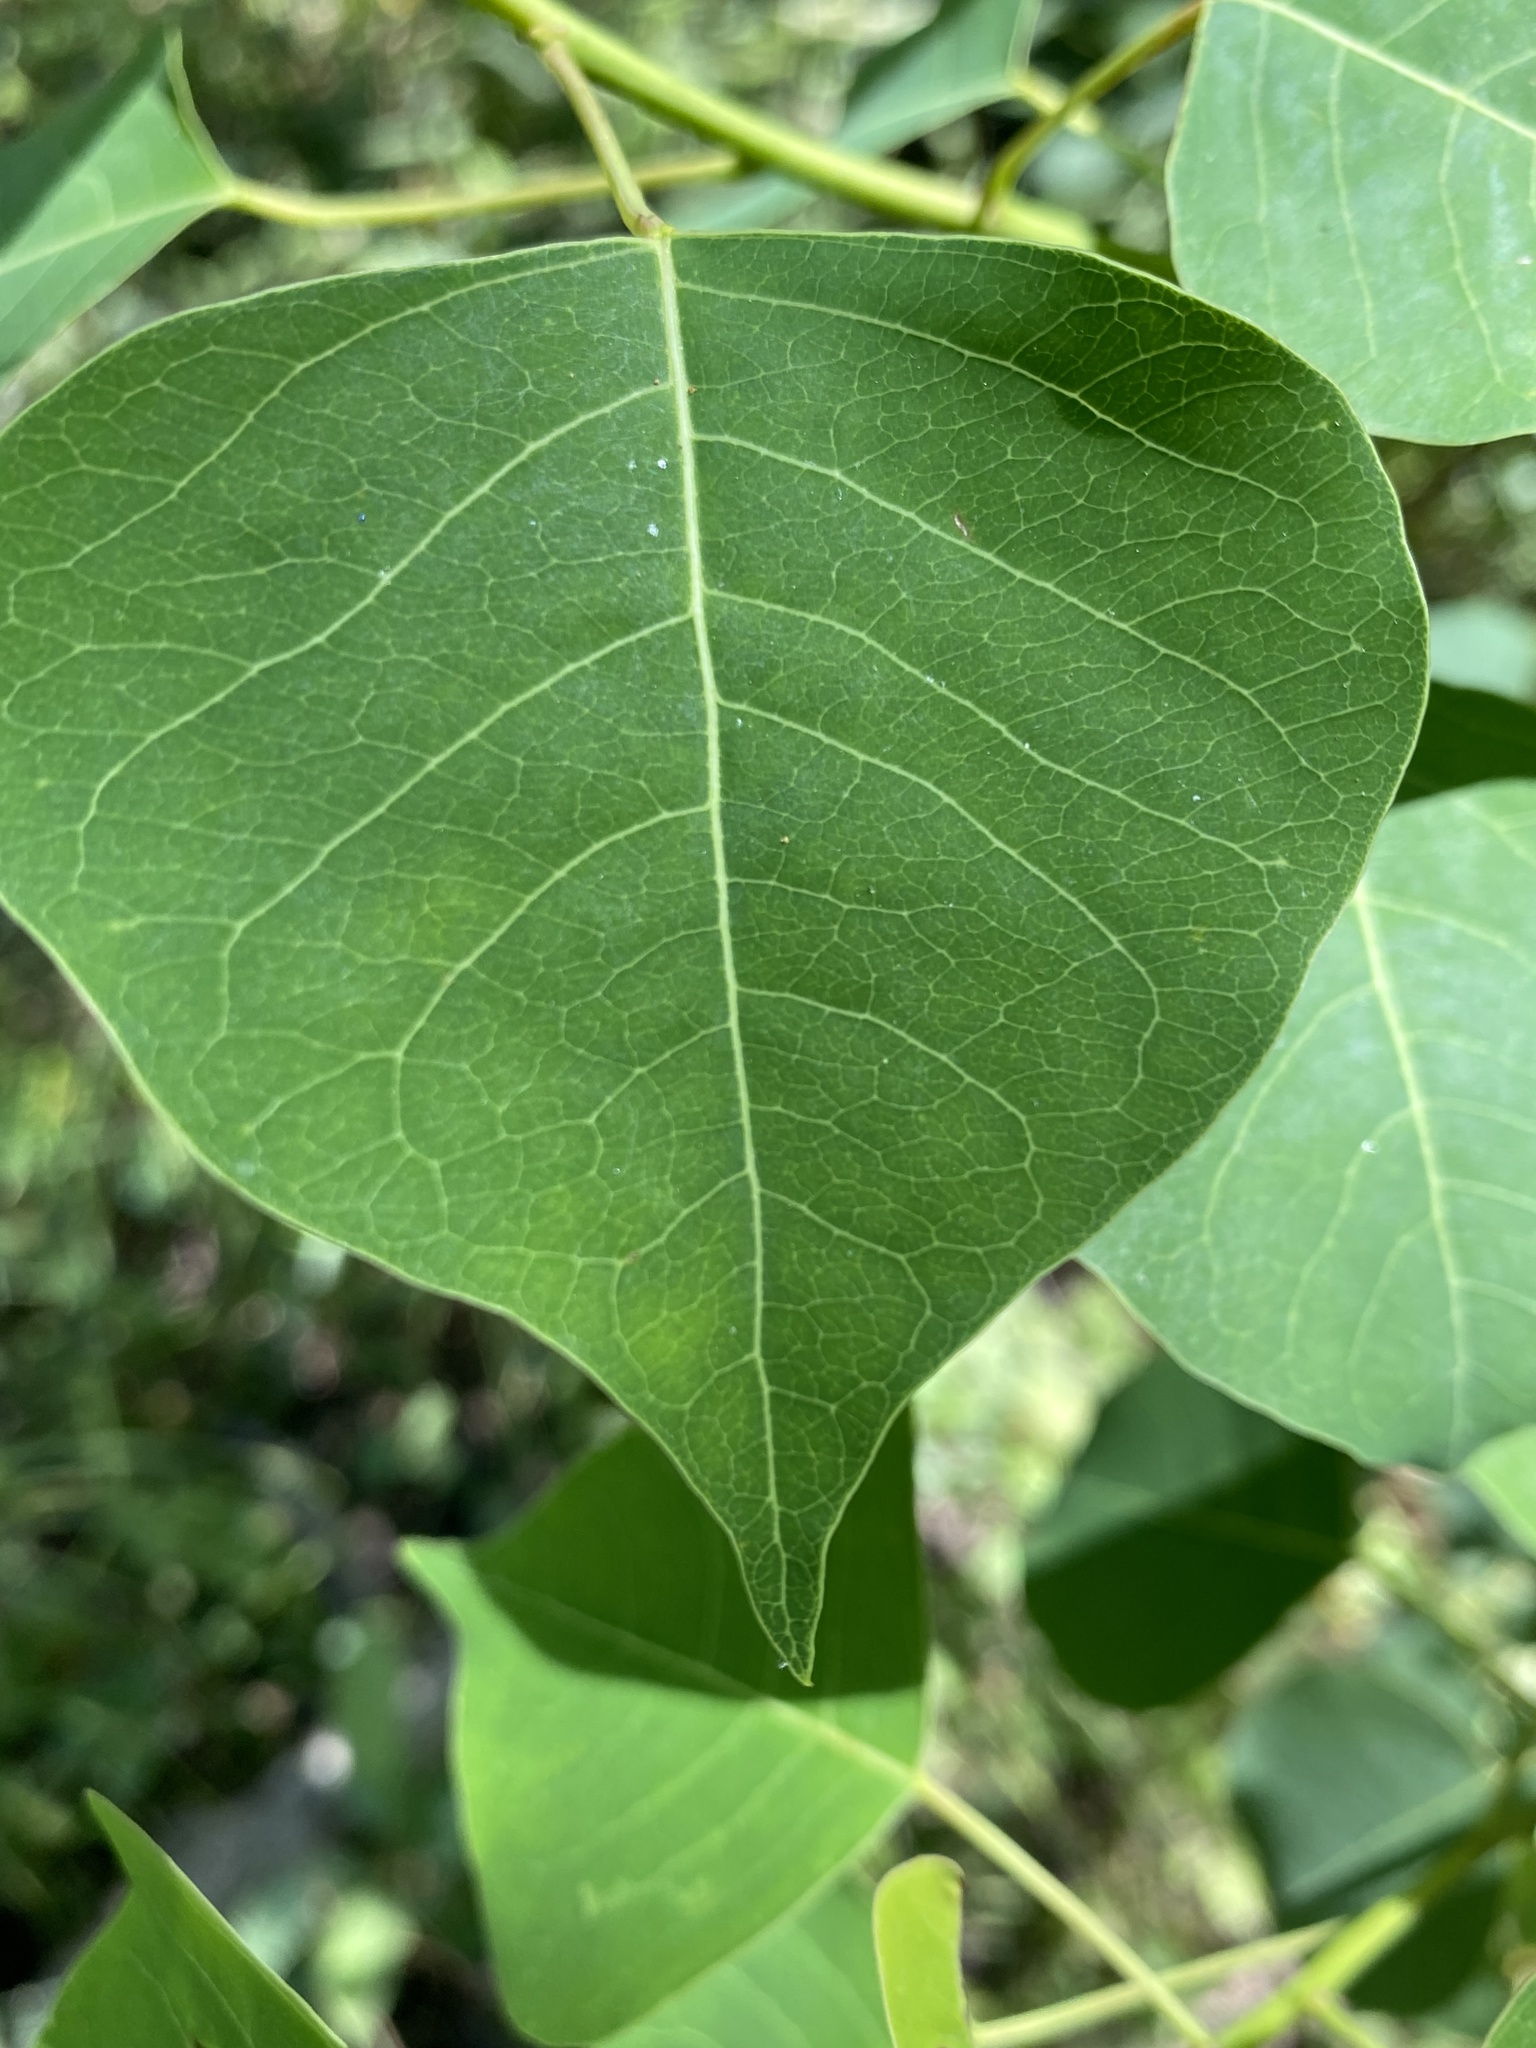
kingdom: Plantae
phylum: Tracheophyta
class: Magnoliopsida
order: Malpighiales
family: Euphorbiaceae
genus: Triadica
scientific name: Triadica sebifera
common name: Chinese tallow
